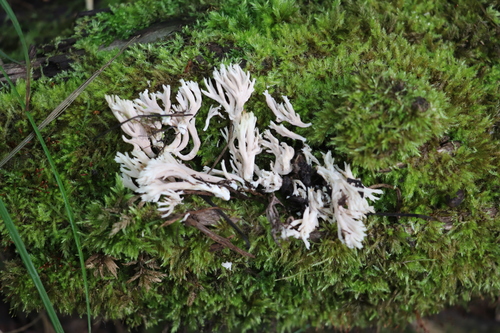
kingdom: Fungi
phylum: Basidiomycota
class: Agaricomycetes
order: Gomphales
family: Lentariaceae
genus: Lentaria
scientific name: Lentaria dendroidea
